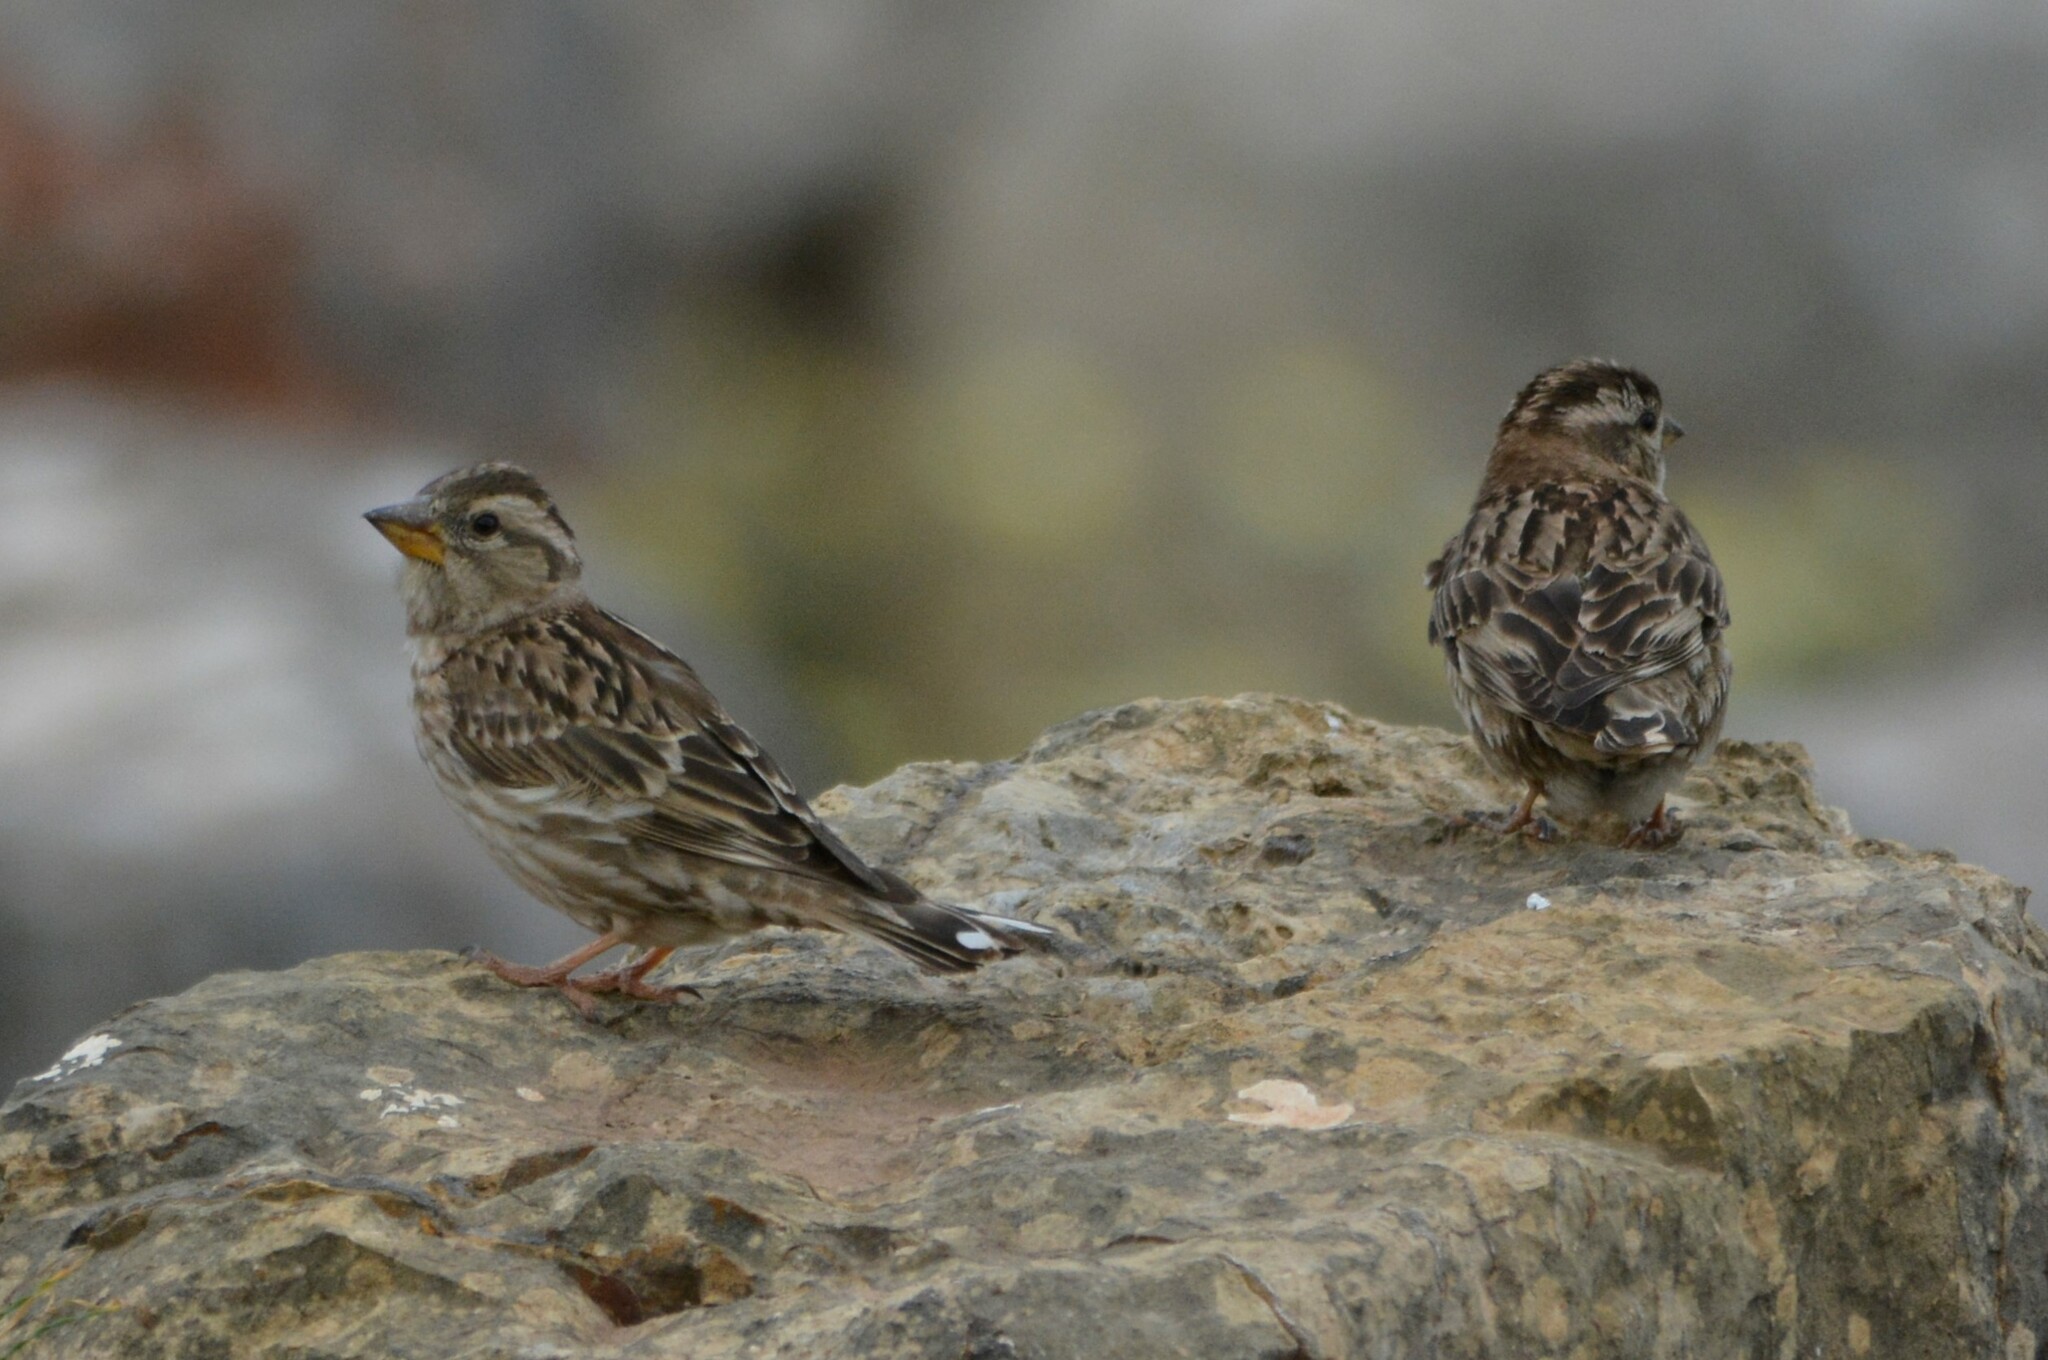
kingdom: Animalia
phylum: Chordata
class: Aves
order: Passeriformes
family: Passeridae
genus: Petronia
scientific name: Petronia petronia
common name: Rock sparrow
